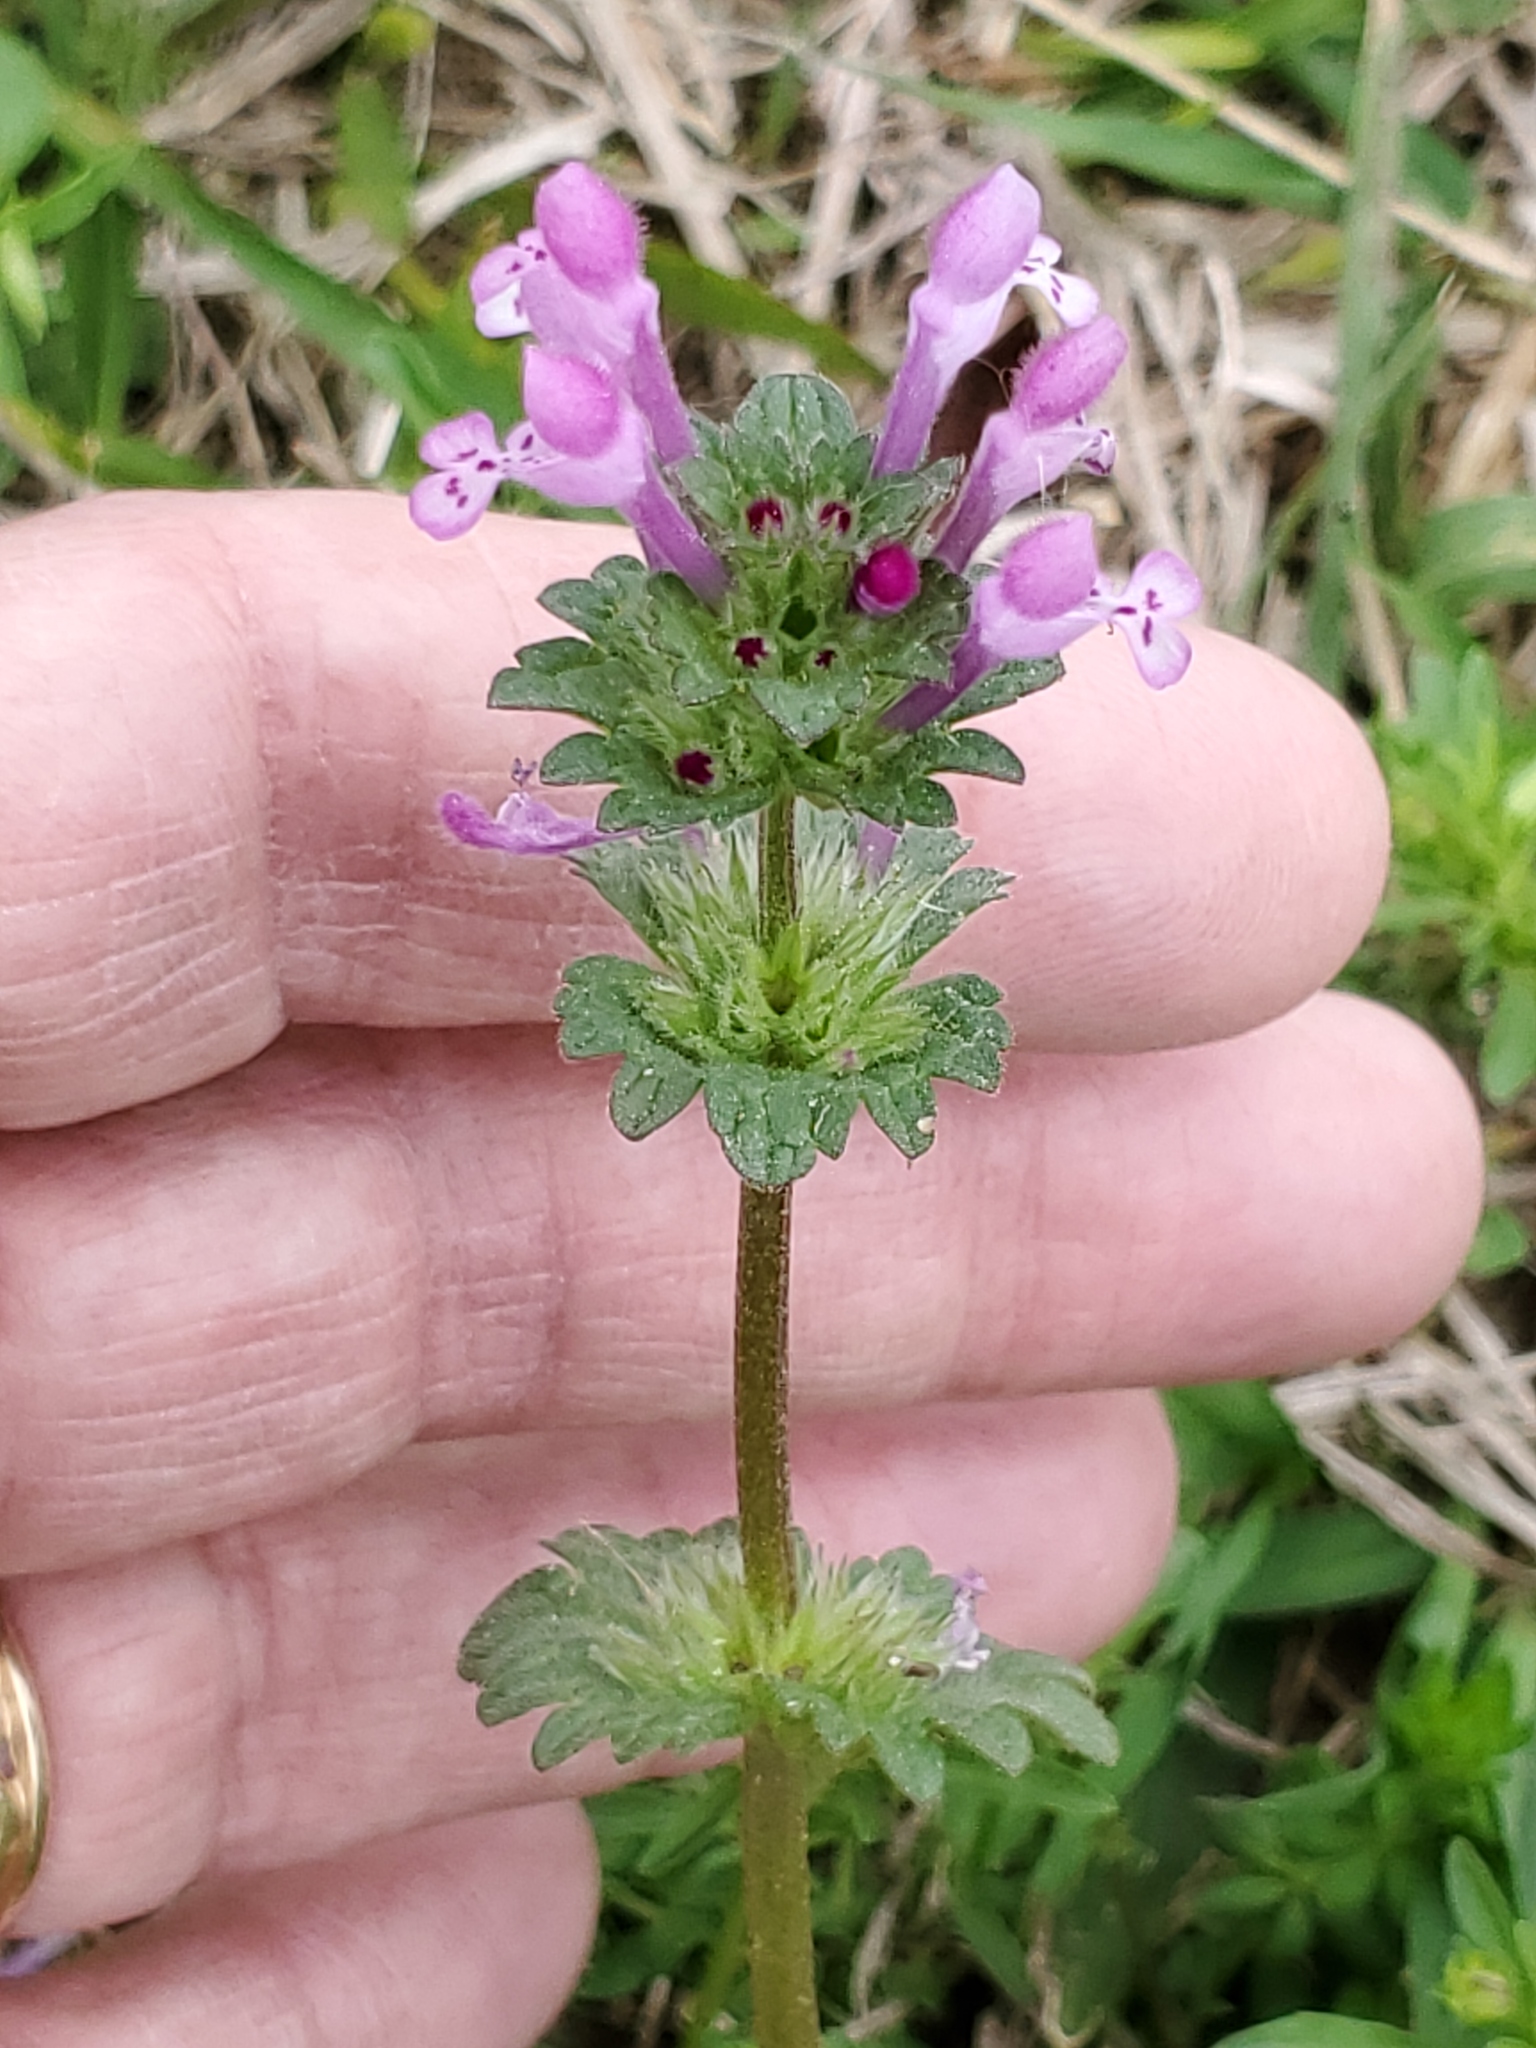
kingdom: Plantae
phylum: Tracheophyta
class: Magnoliopsida
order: Lamiales
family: Lamiaceae
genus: Lamium
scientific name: Lamium amplexicaule
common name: Henbit dead-nettle
